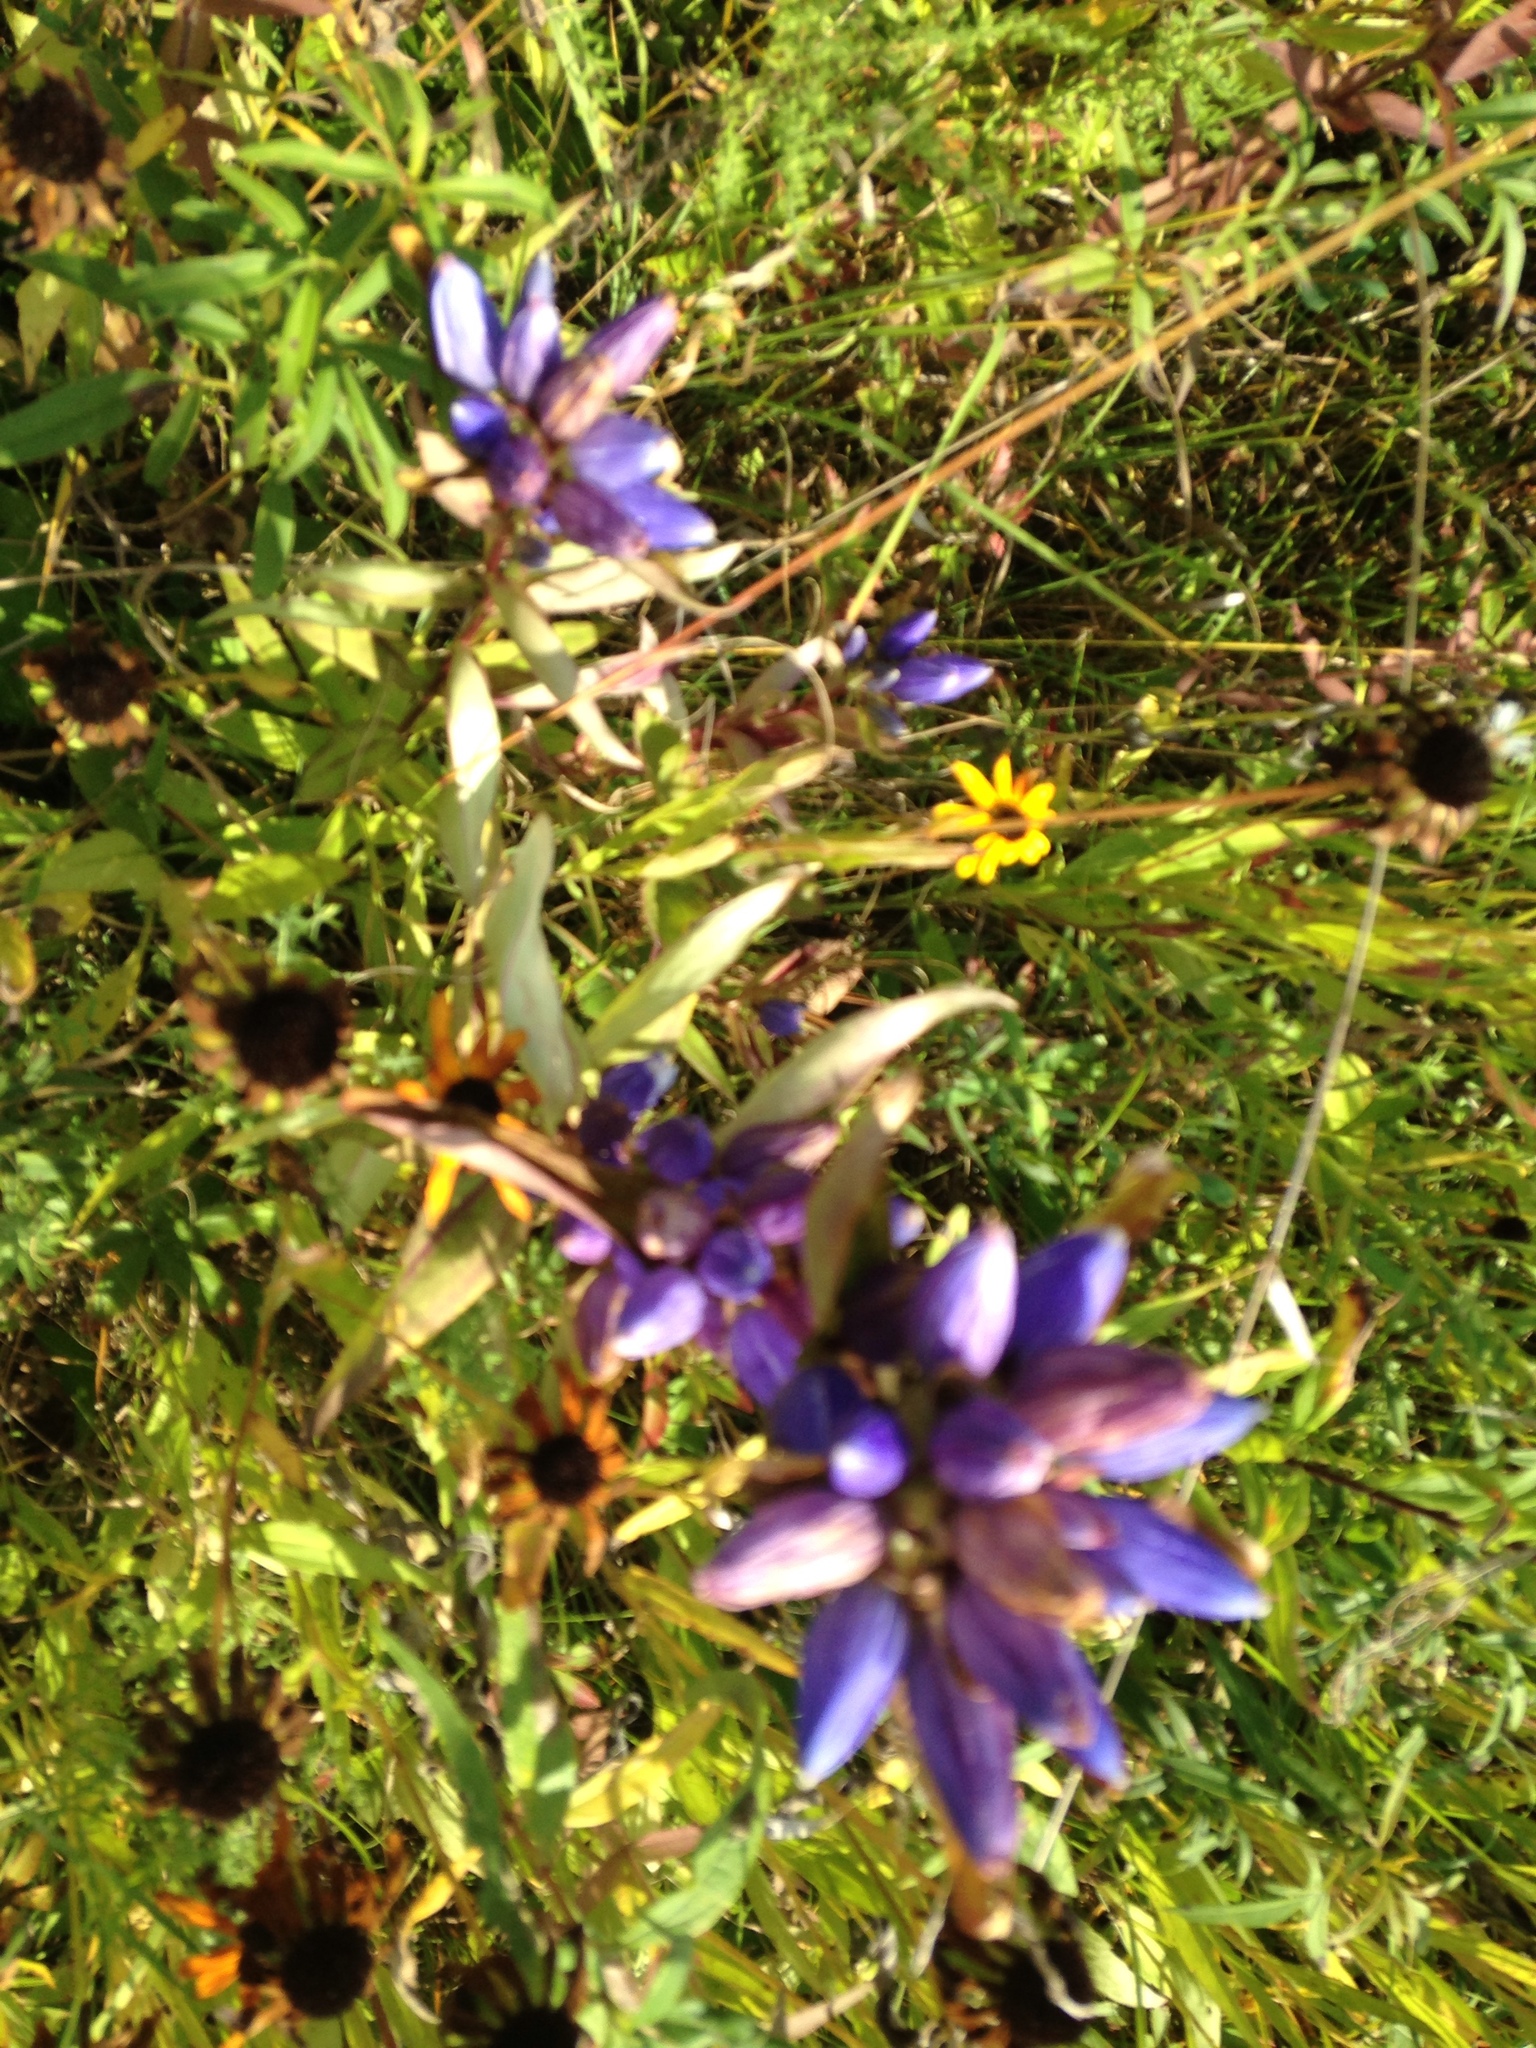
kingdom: Plantae
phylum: Tracheophyta
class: Magnoliopsida
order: Gentianales
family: Gentianaceae
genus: Gentiana
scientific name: Gentiana andrewsii
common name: Bottle gentian
